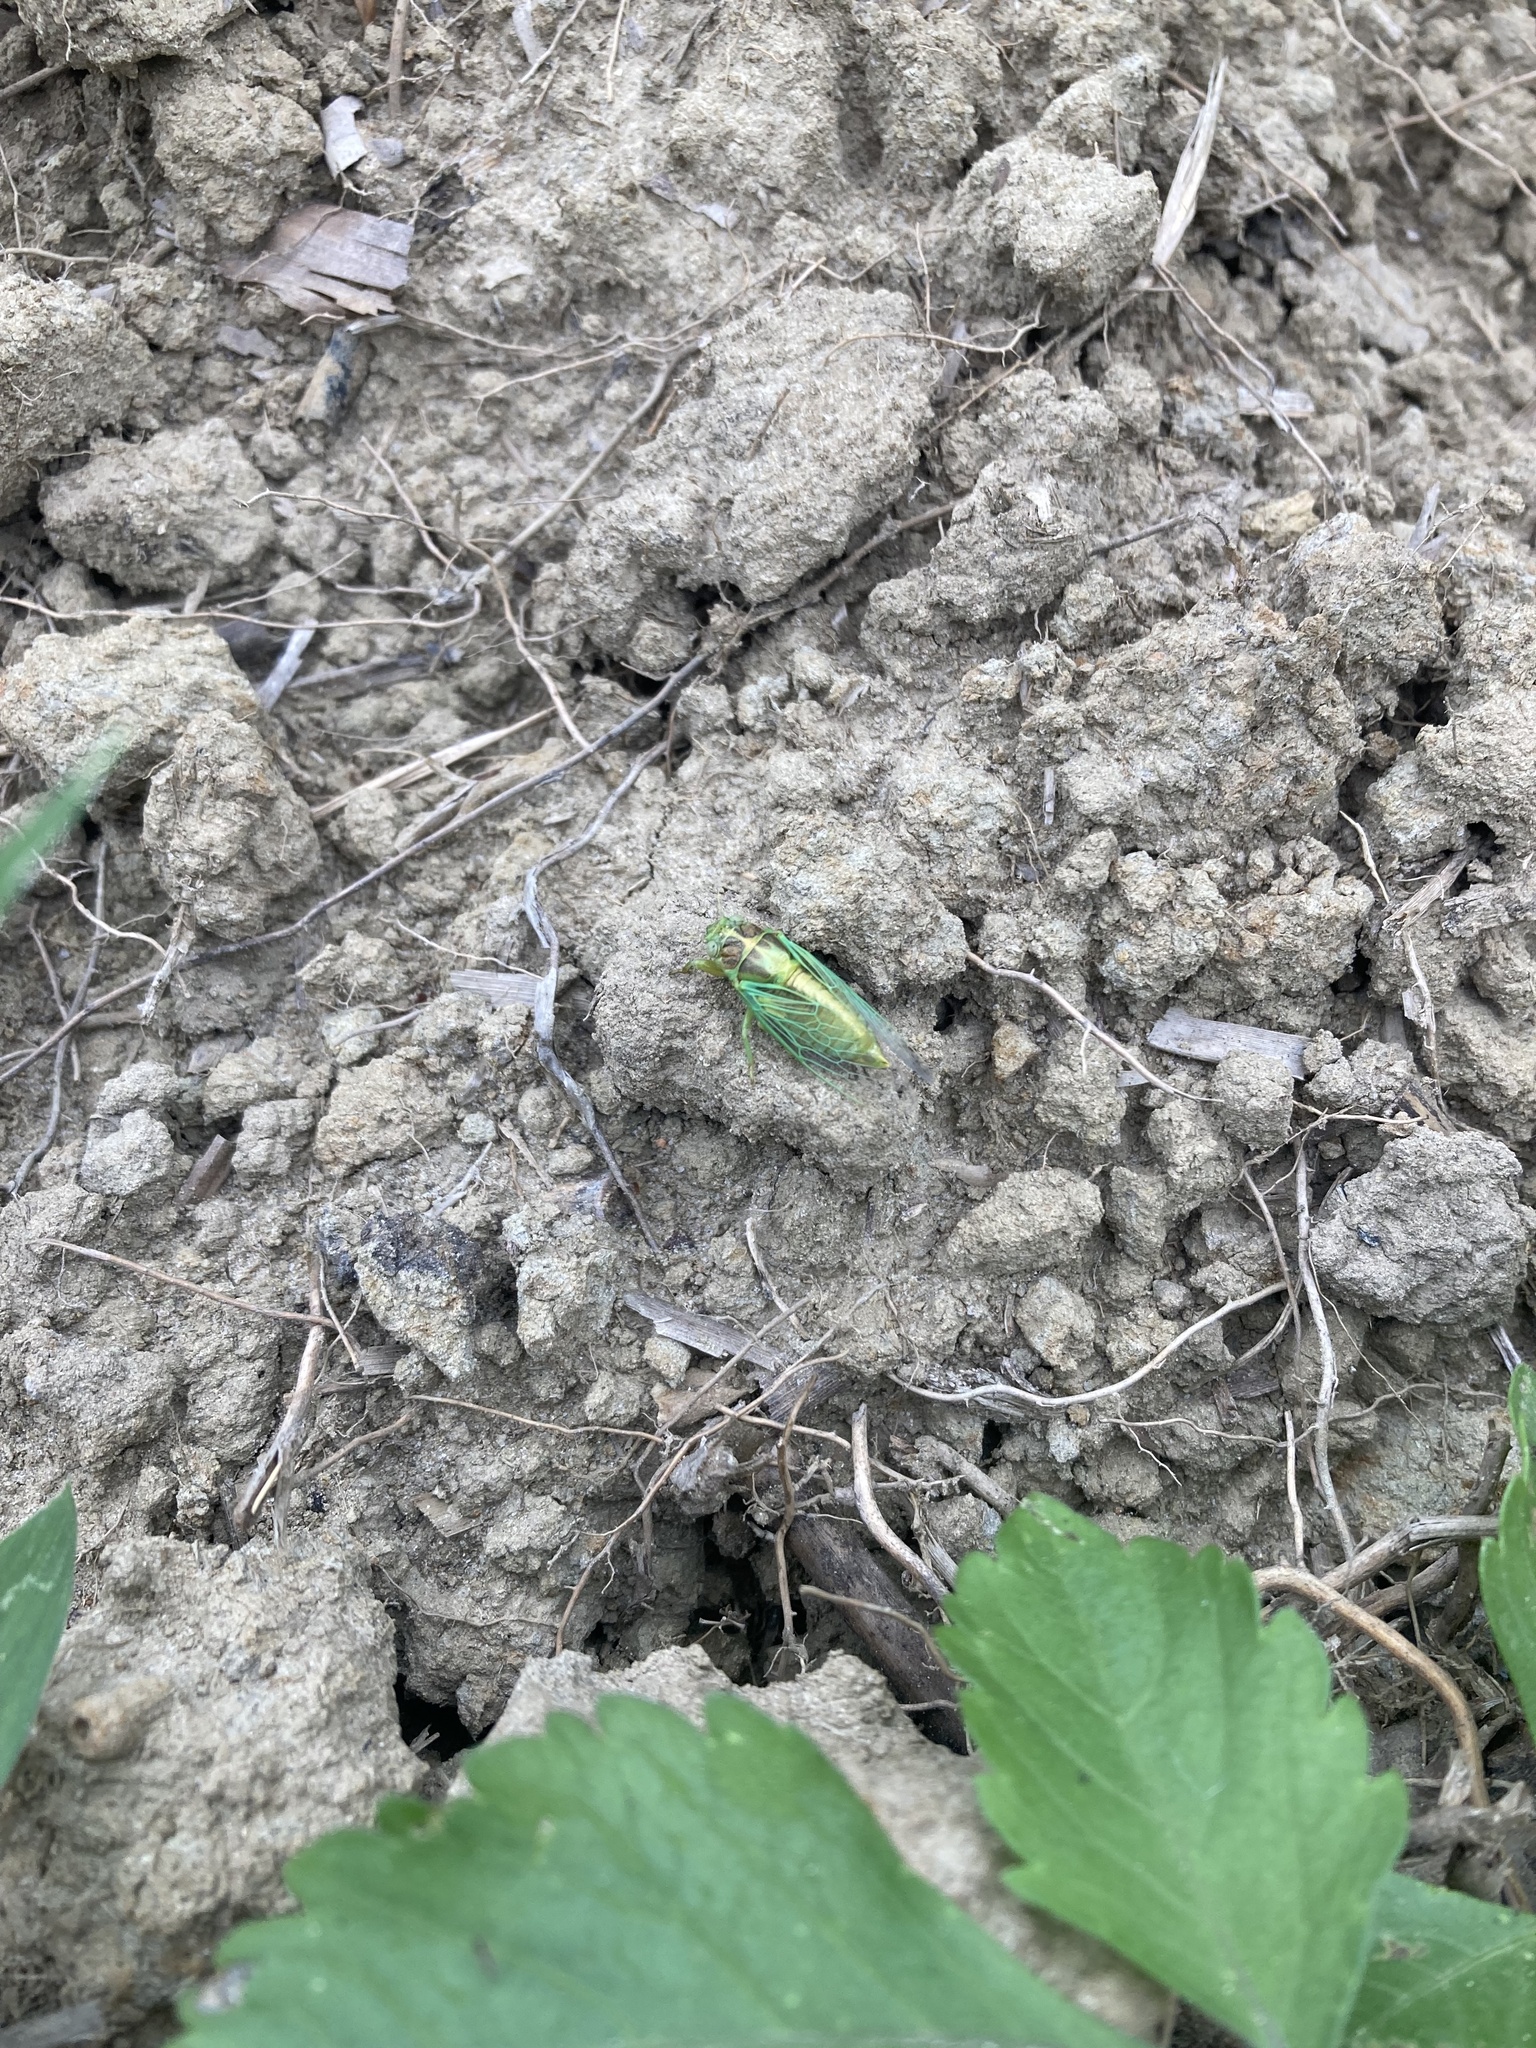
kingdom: Animalia
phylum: Arthropoda
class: Insecta
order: Hemiptera
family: Cicadidae
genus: Mogannia
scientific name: Mogannia hebes
